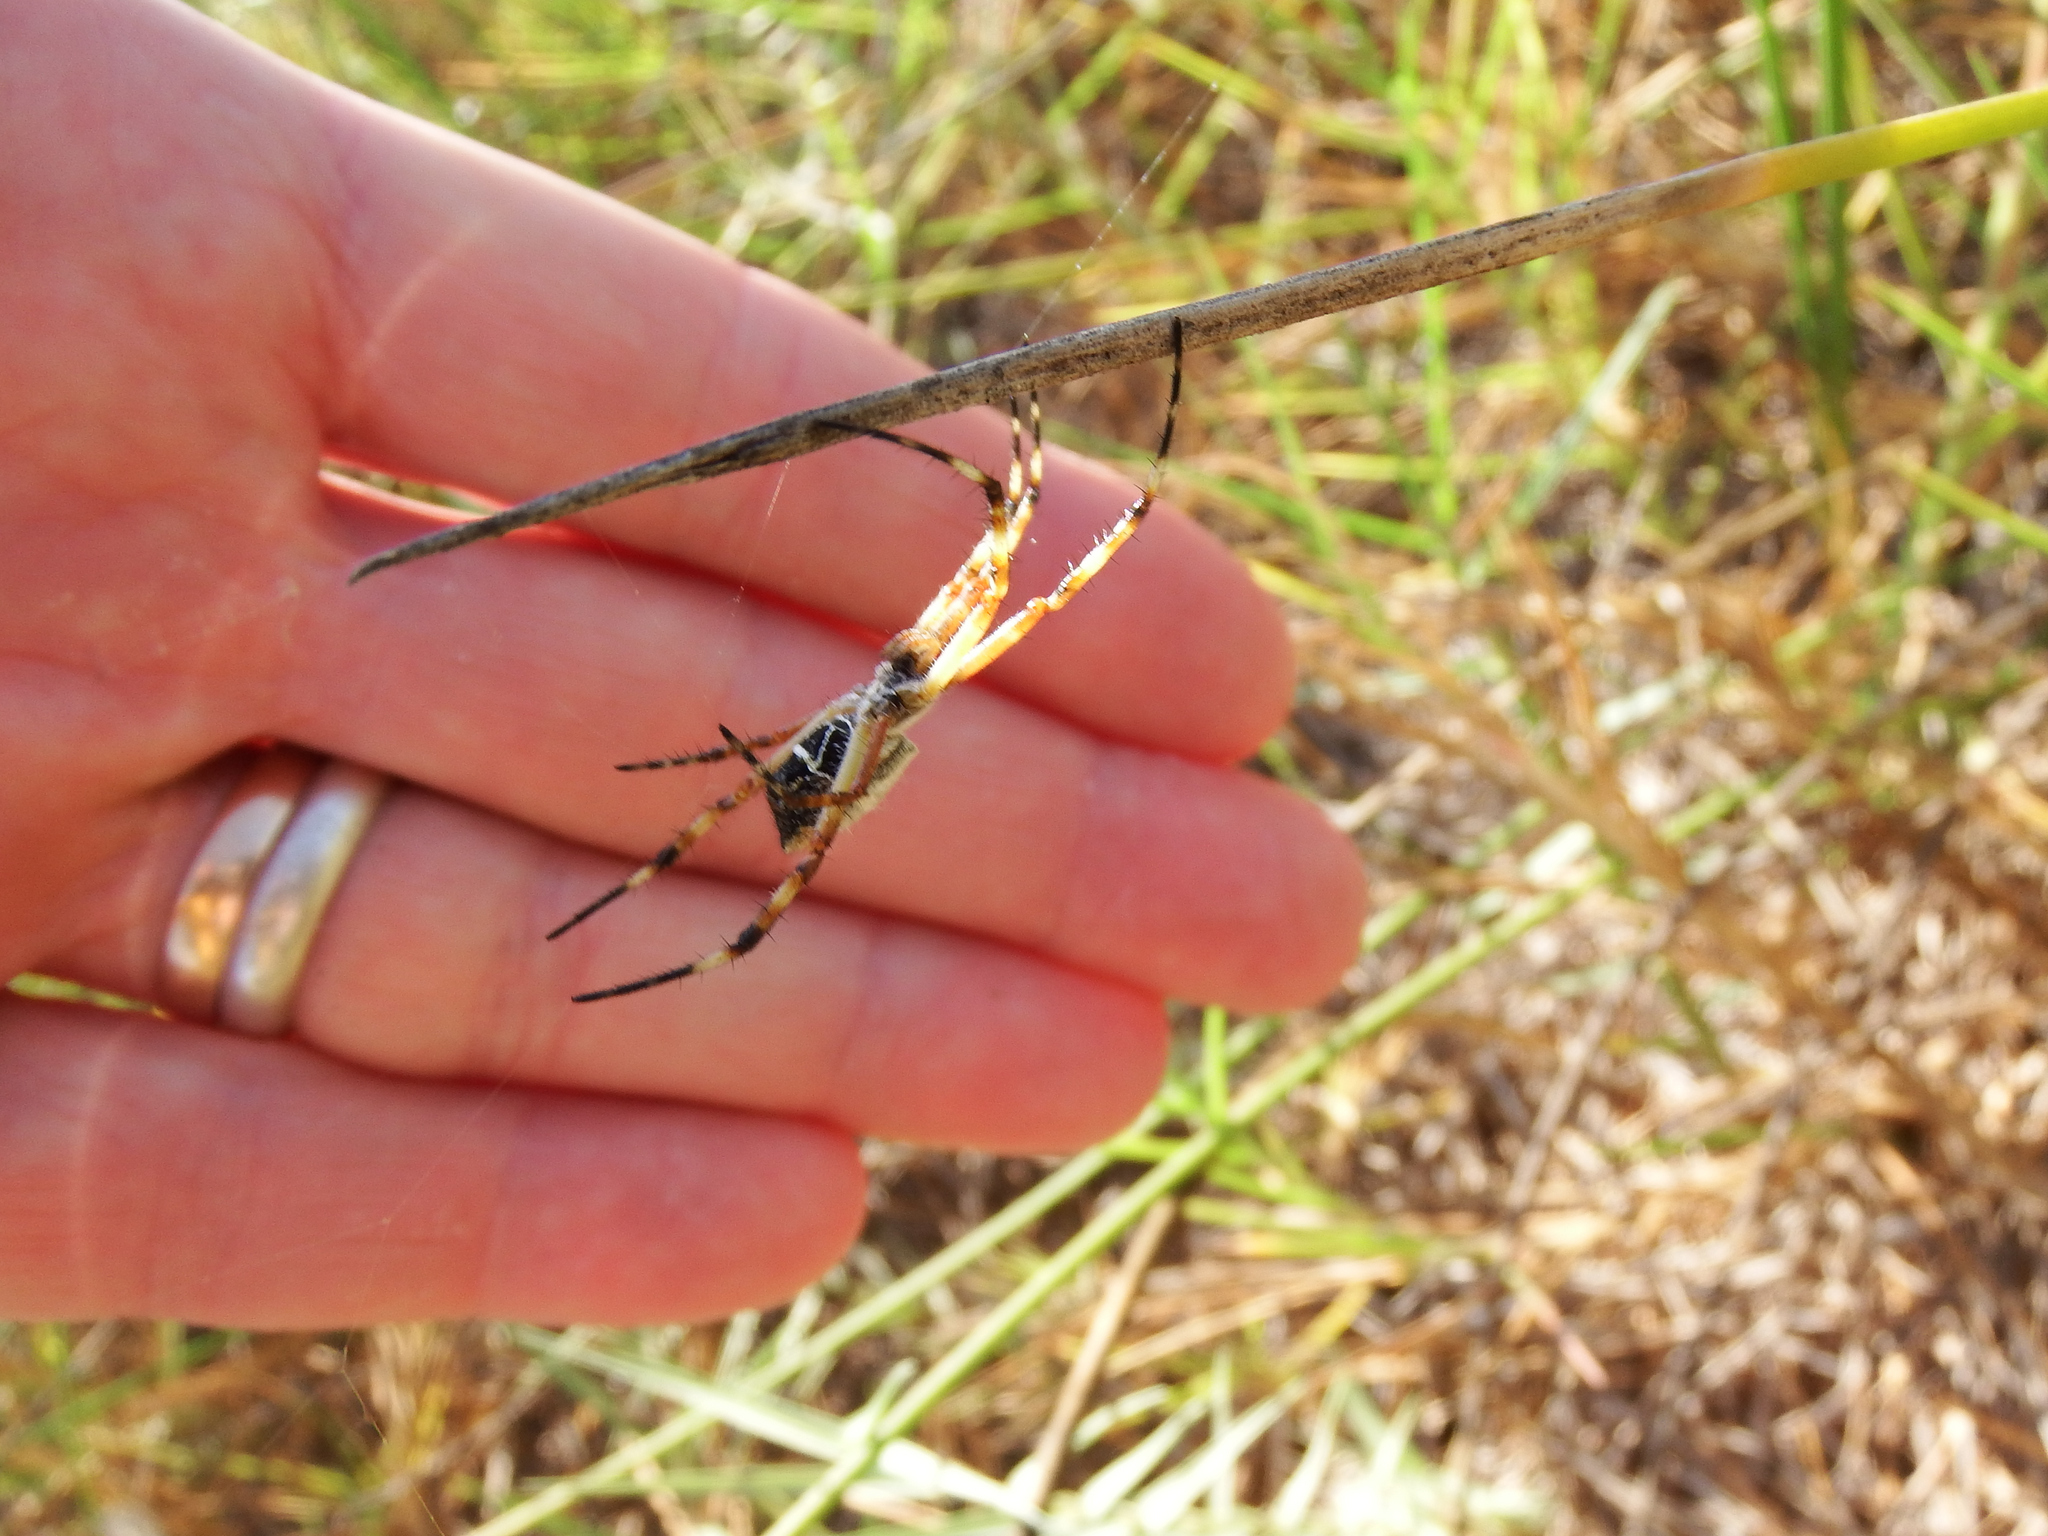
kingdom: Animalia
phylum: Arthropoda
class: Arachnida
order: Araneae
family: Araneidae
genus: Argiope
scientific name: Argiope argentata
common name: Orb weavers
